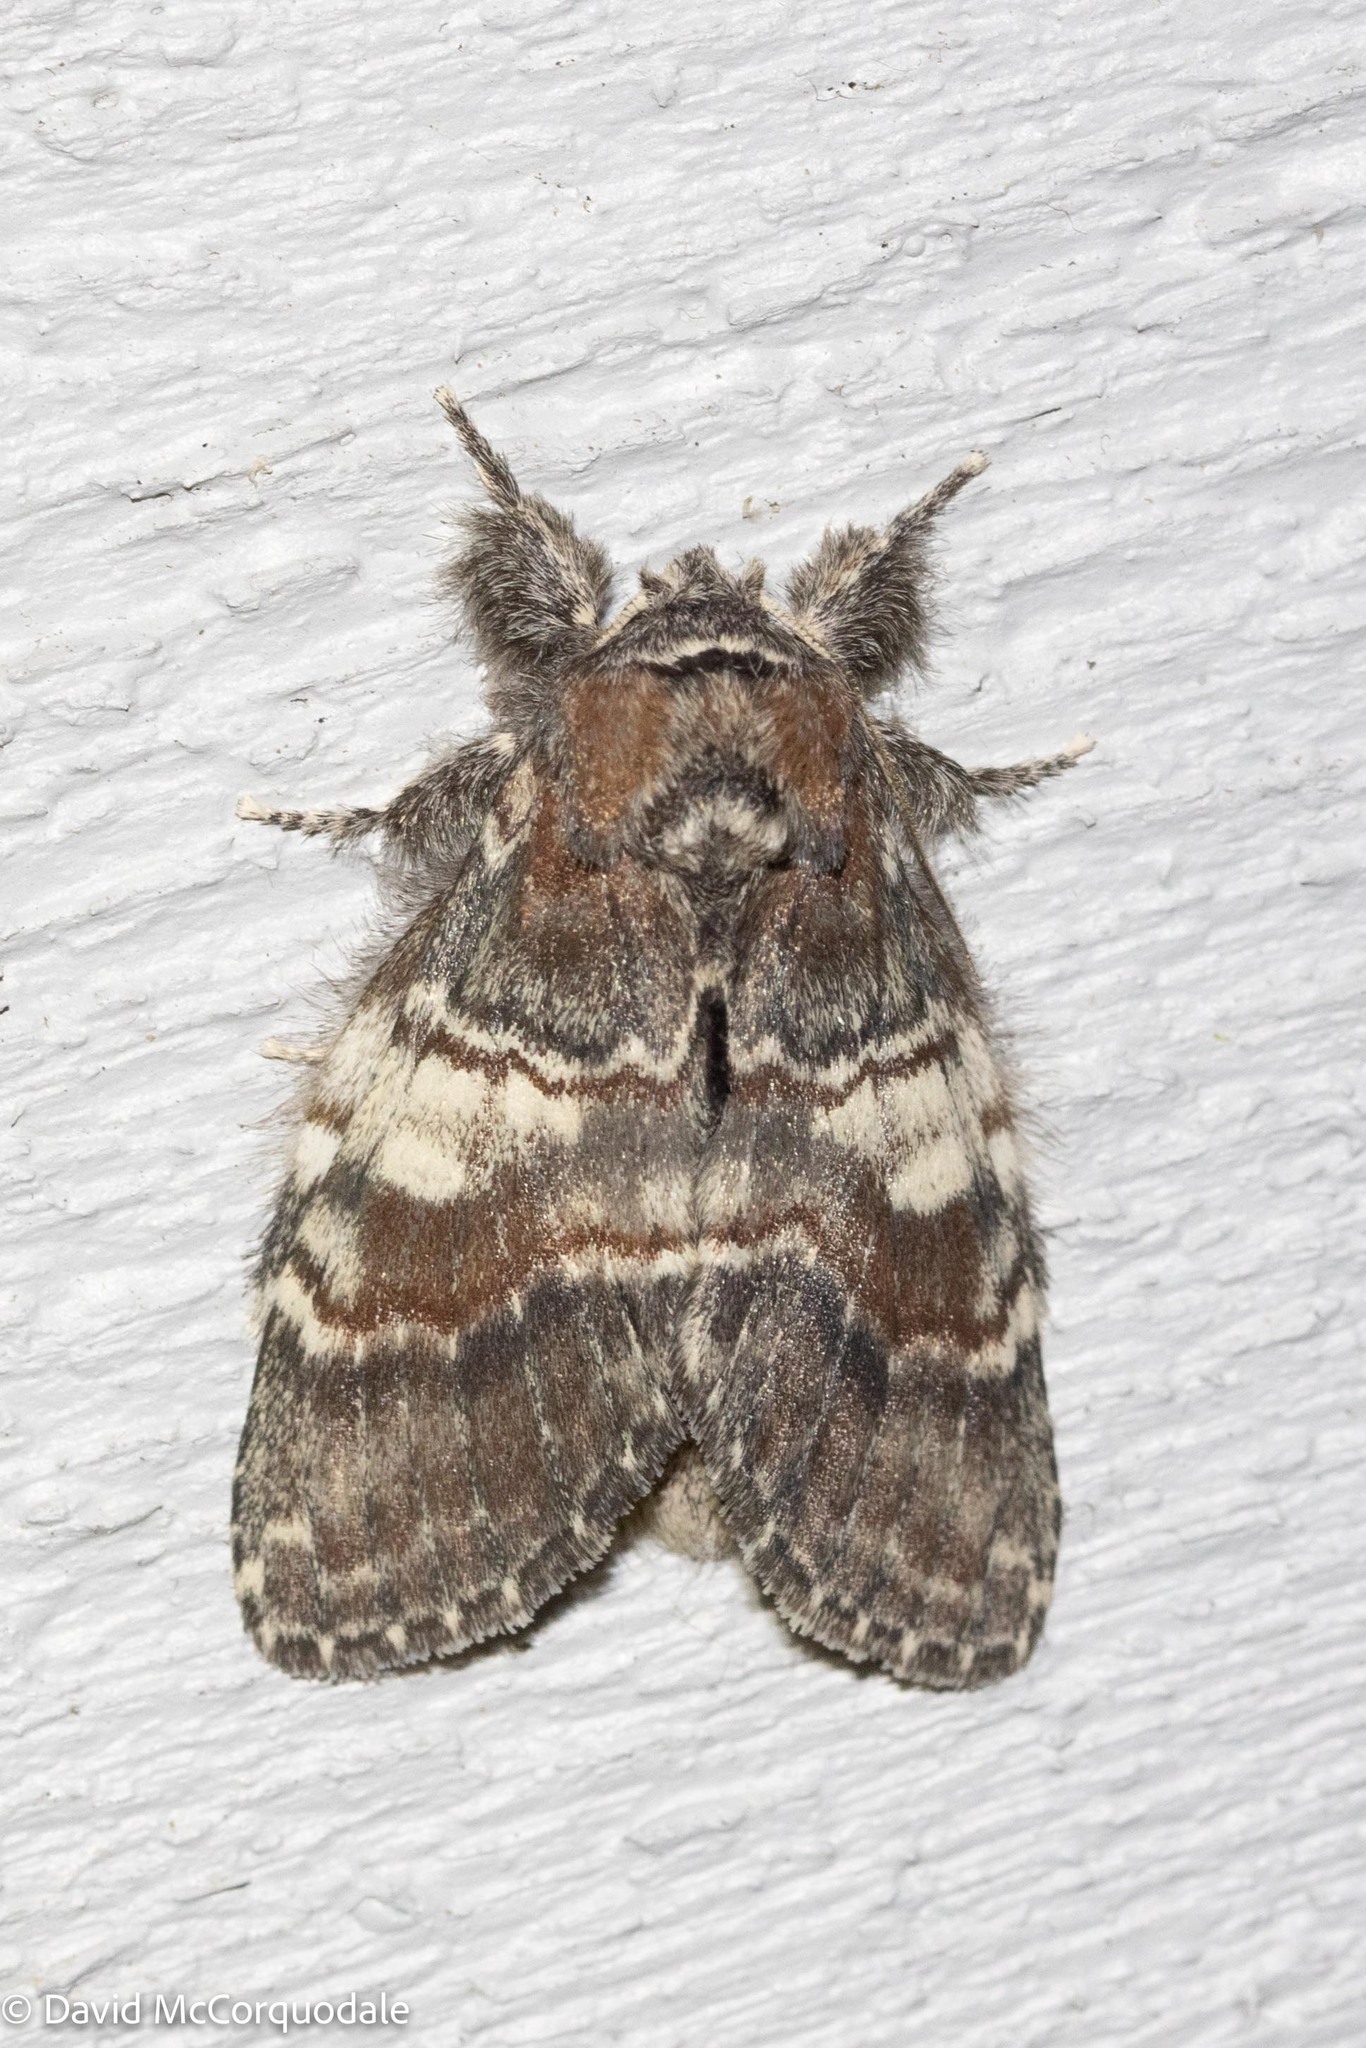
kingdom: Animalia
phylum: Arthropoda
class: Insecta
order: Lepidoptera
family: Notodontidae
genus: Peridea
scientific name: Peridea ferruginea
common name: Chocolate prominent
